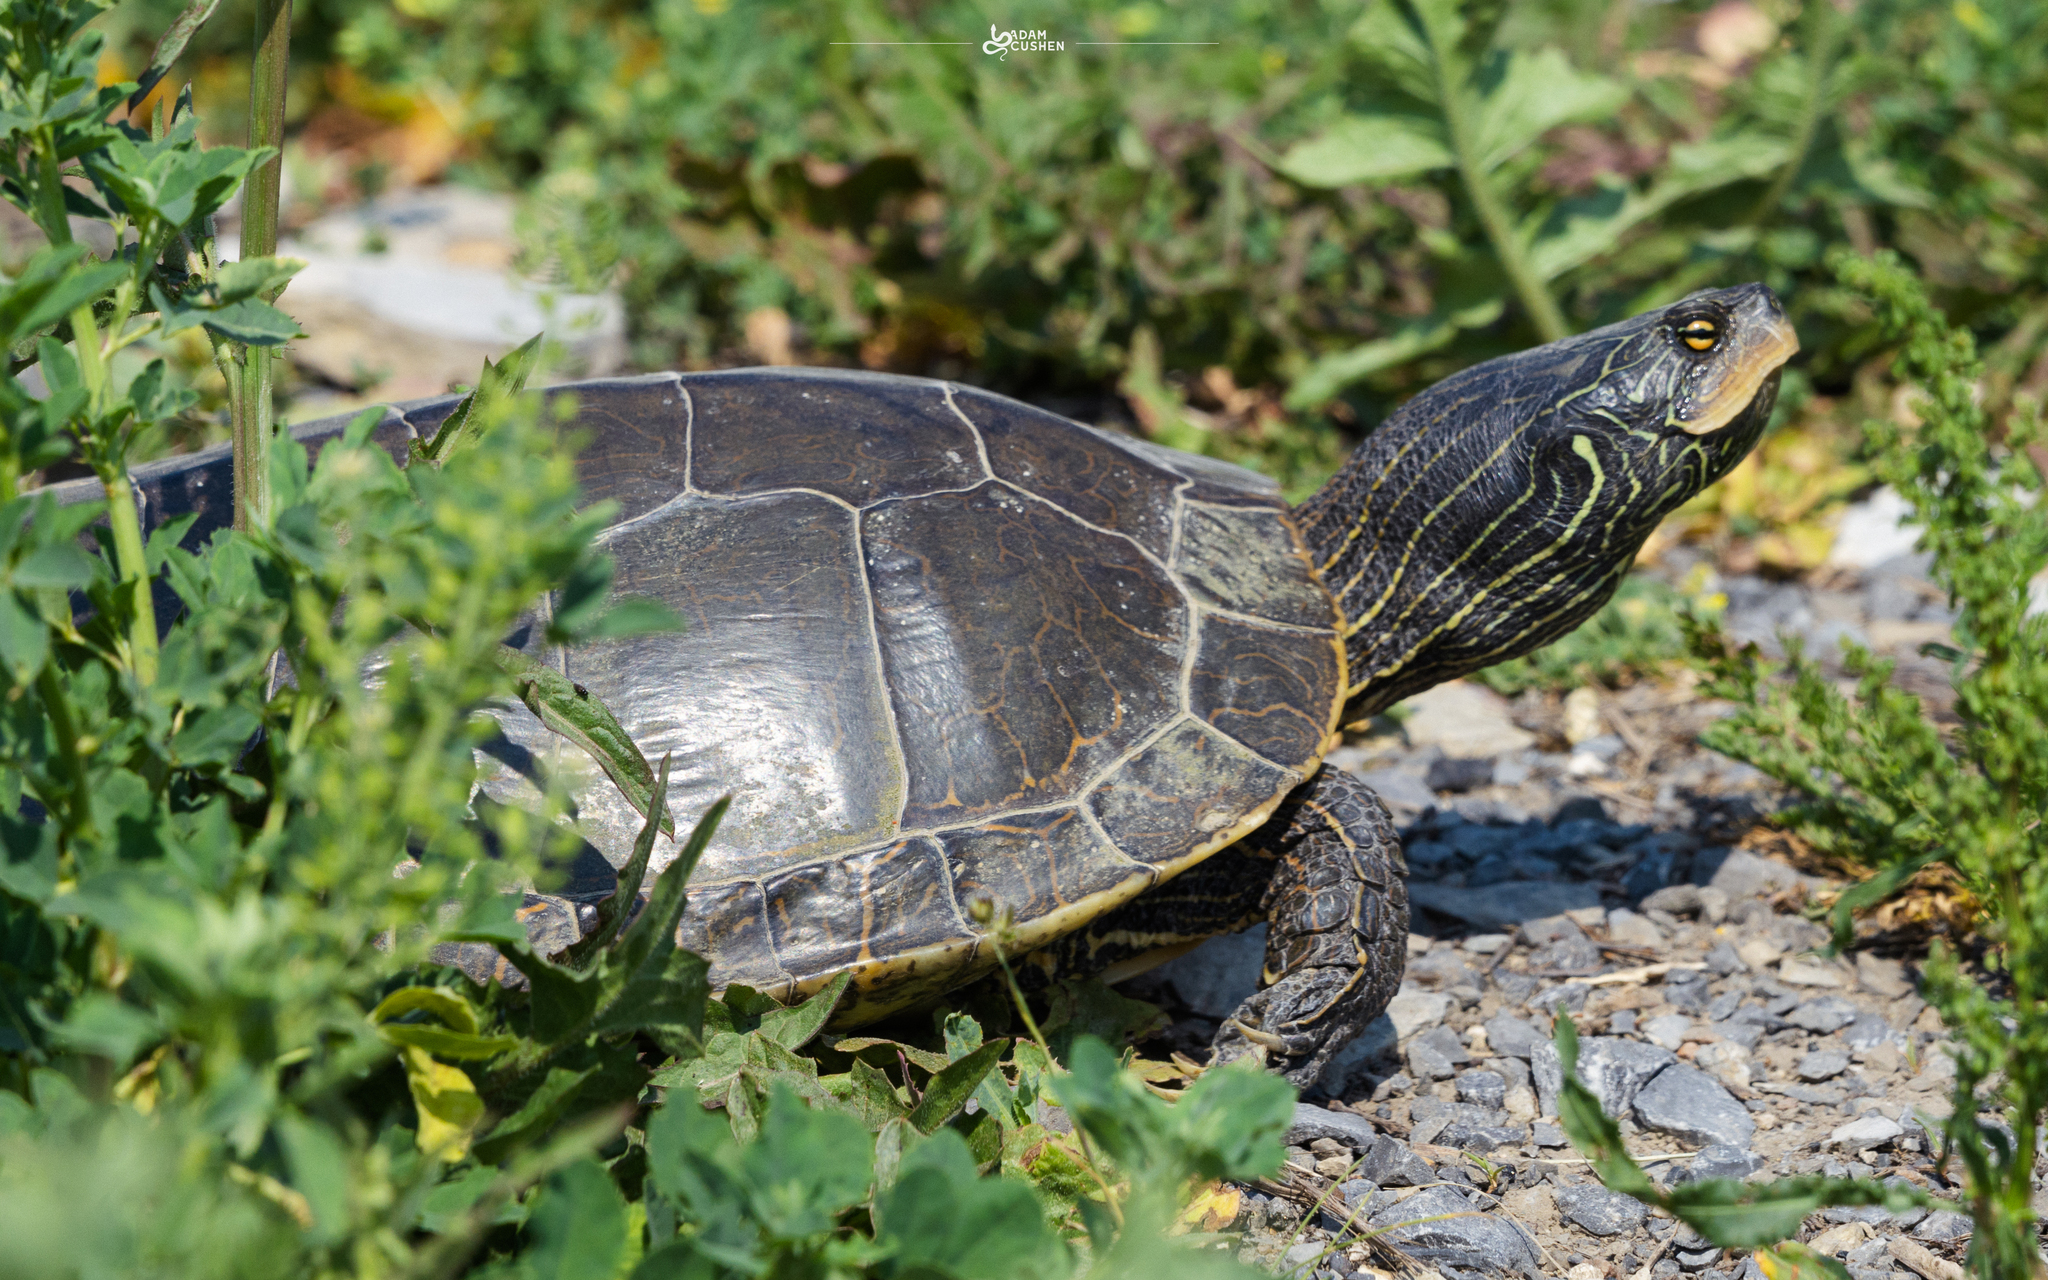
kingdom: Animalia
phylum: Chordata
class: Testudines
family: Emydidae
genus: Graptemys
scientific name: Graptemys geographica
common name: Common map turtle
